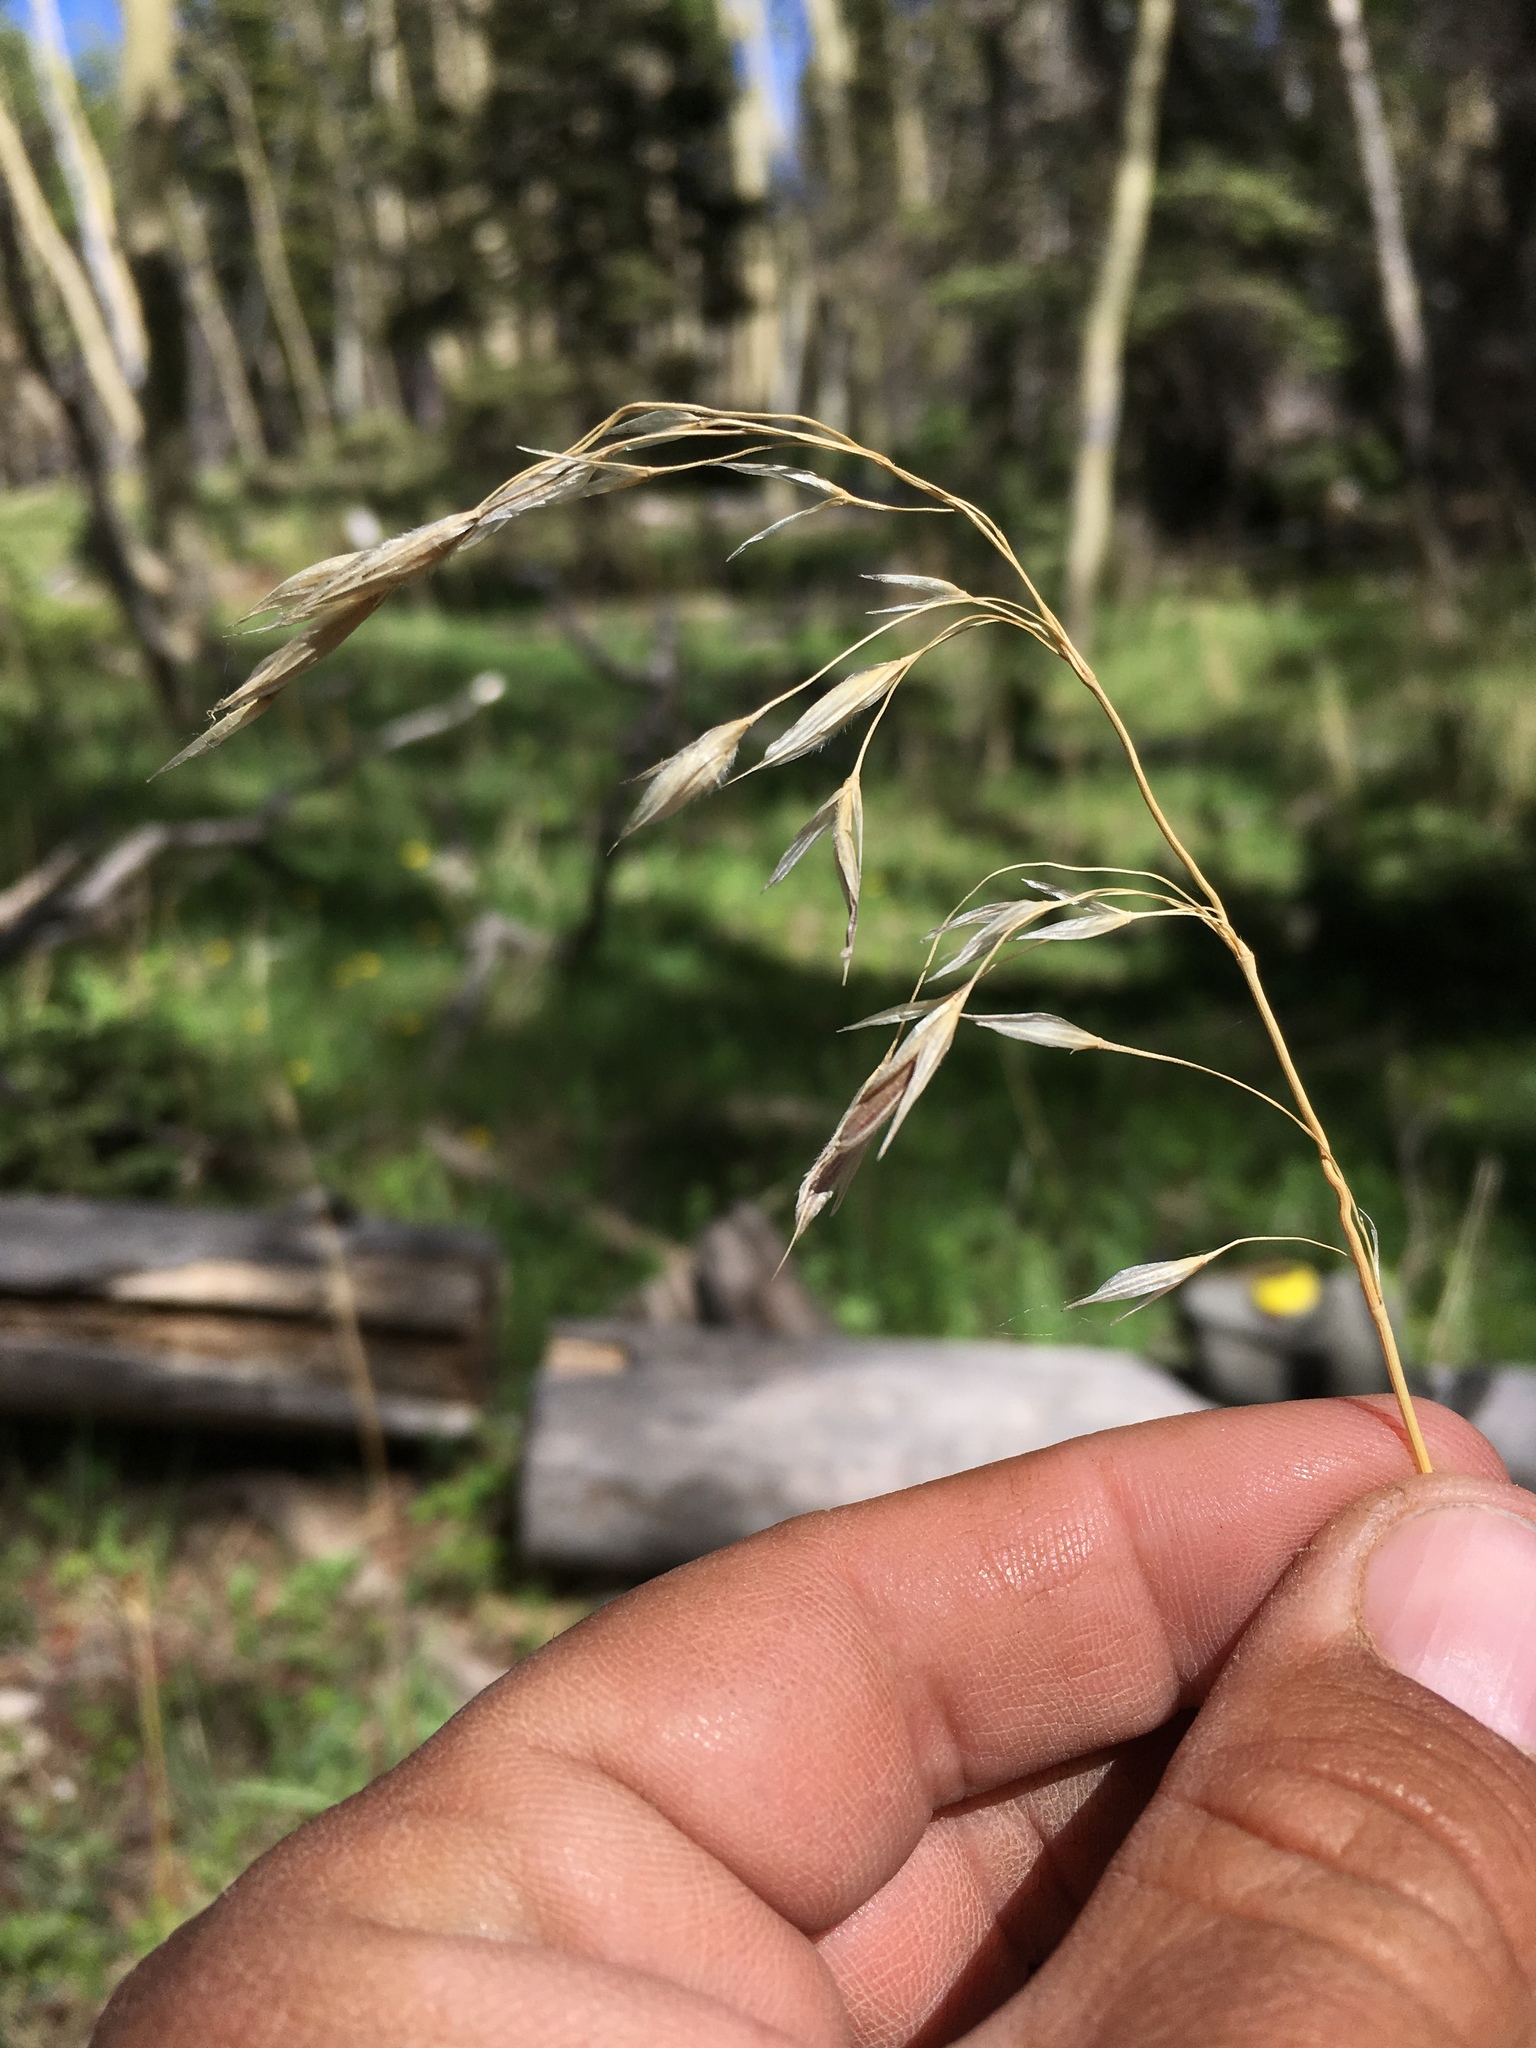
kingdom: Plantae
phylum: Tracheophyta
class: Liliopsida
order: Poales
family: Poaceae
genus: Bromus
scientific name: Bromus ciliatus
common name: Fringe brome
